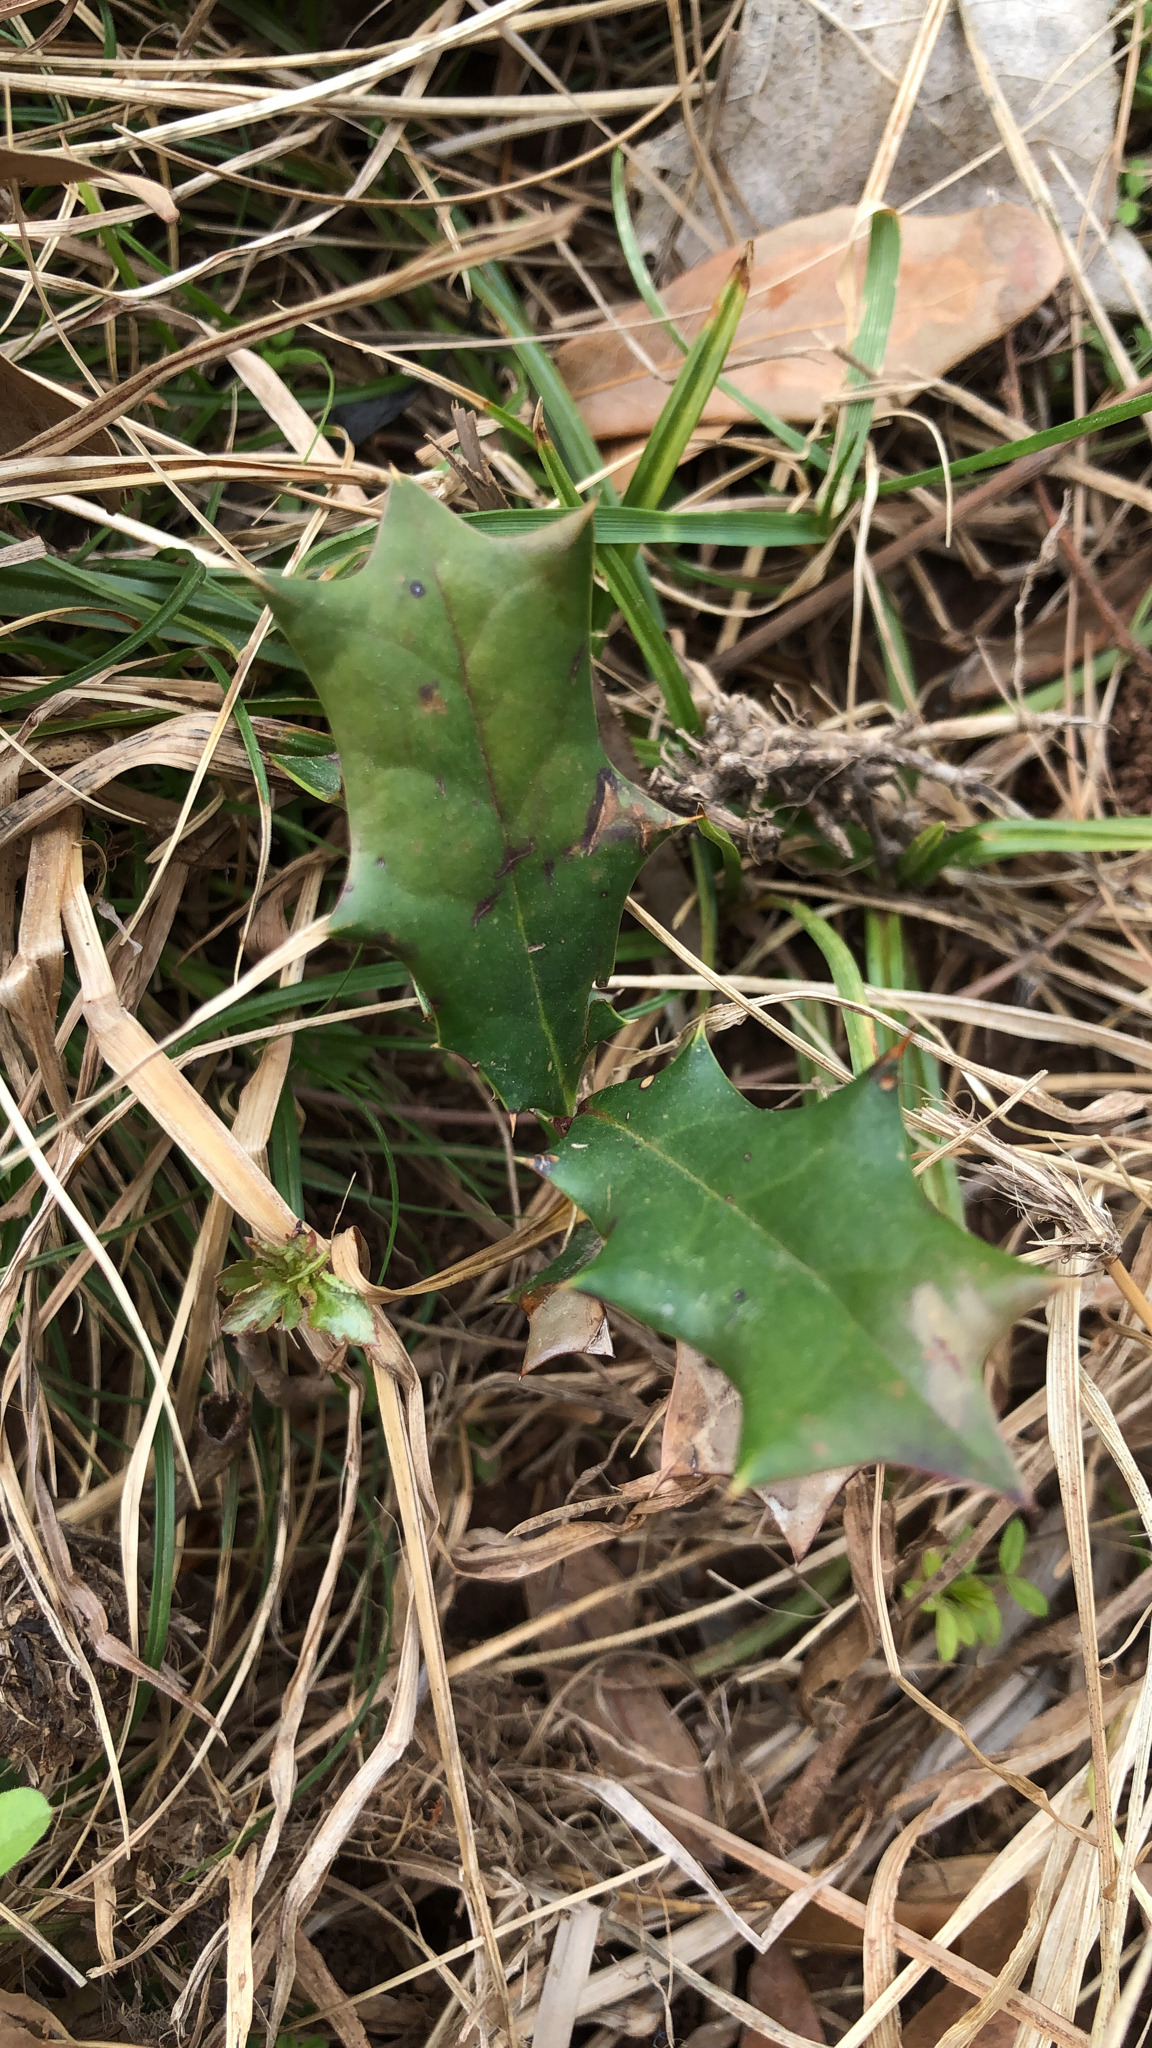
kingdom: Plantae
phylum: Tracheophyta
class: Magnoliopsida
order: Aquifoliales
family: Aquifoliaceae
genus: Ilex
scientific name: Ilex cornuta
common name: Chinese holly
